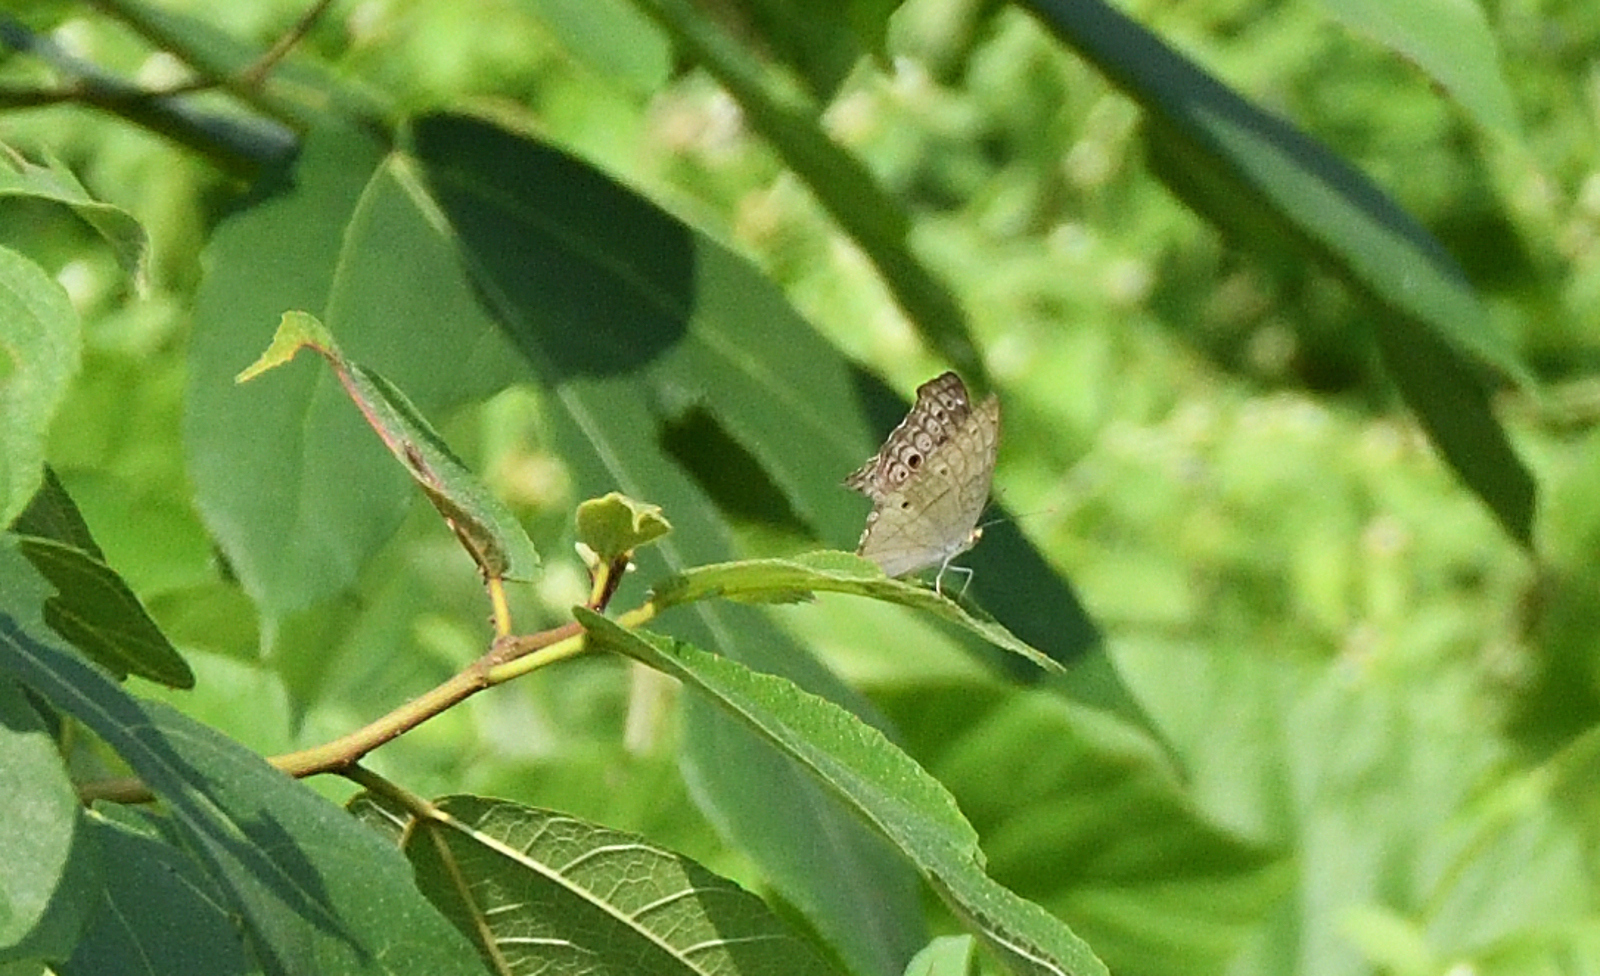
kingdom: Animalia
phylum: Arthropoda
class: Insecta
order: Lepidoptera
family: Nymphalidae
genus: Junonia
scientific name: Junonia atlites
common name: Grey pansy
